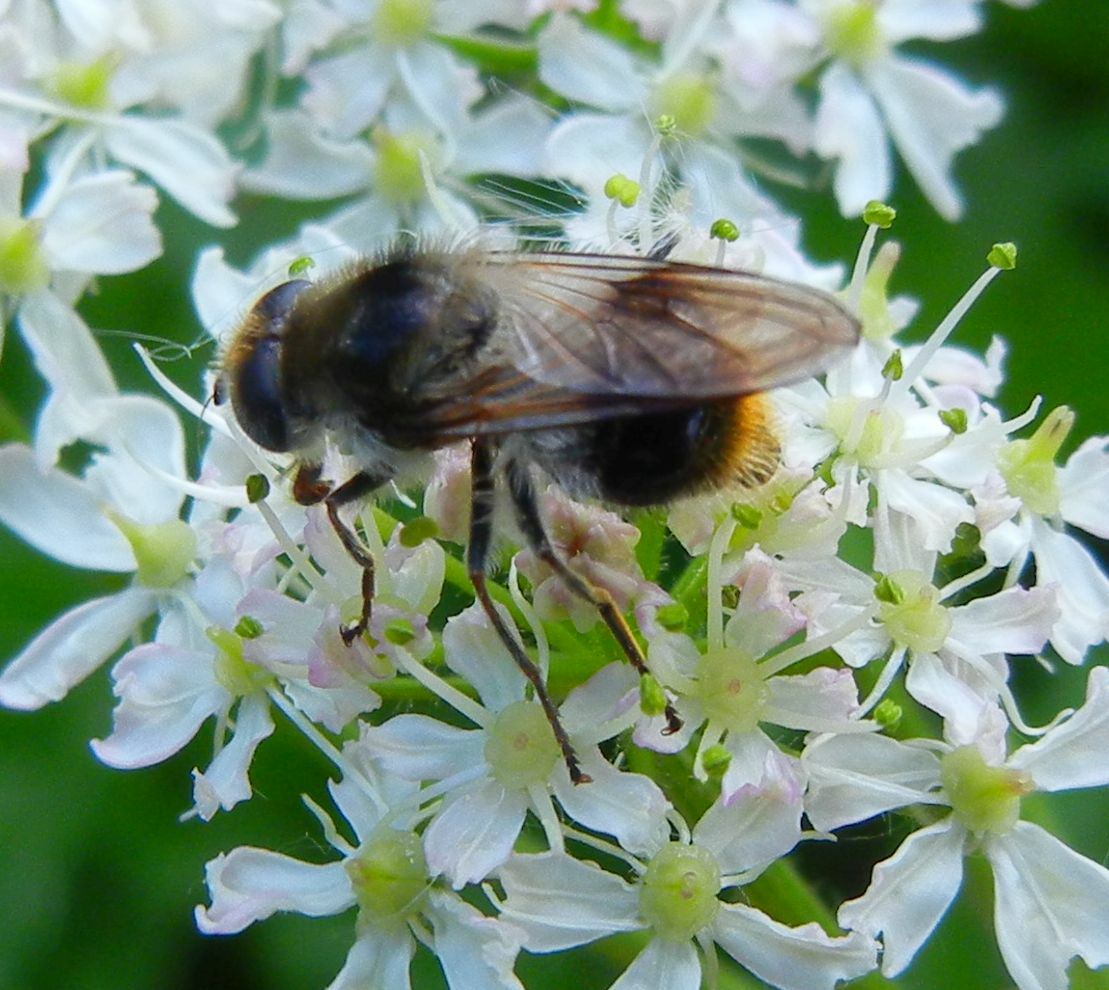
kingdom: Animalia
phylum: Arthropoda
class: Insecta
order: Diptera
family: Syrphidae
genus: Cheilosia
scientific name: Cheilosia illustrata
